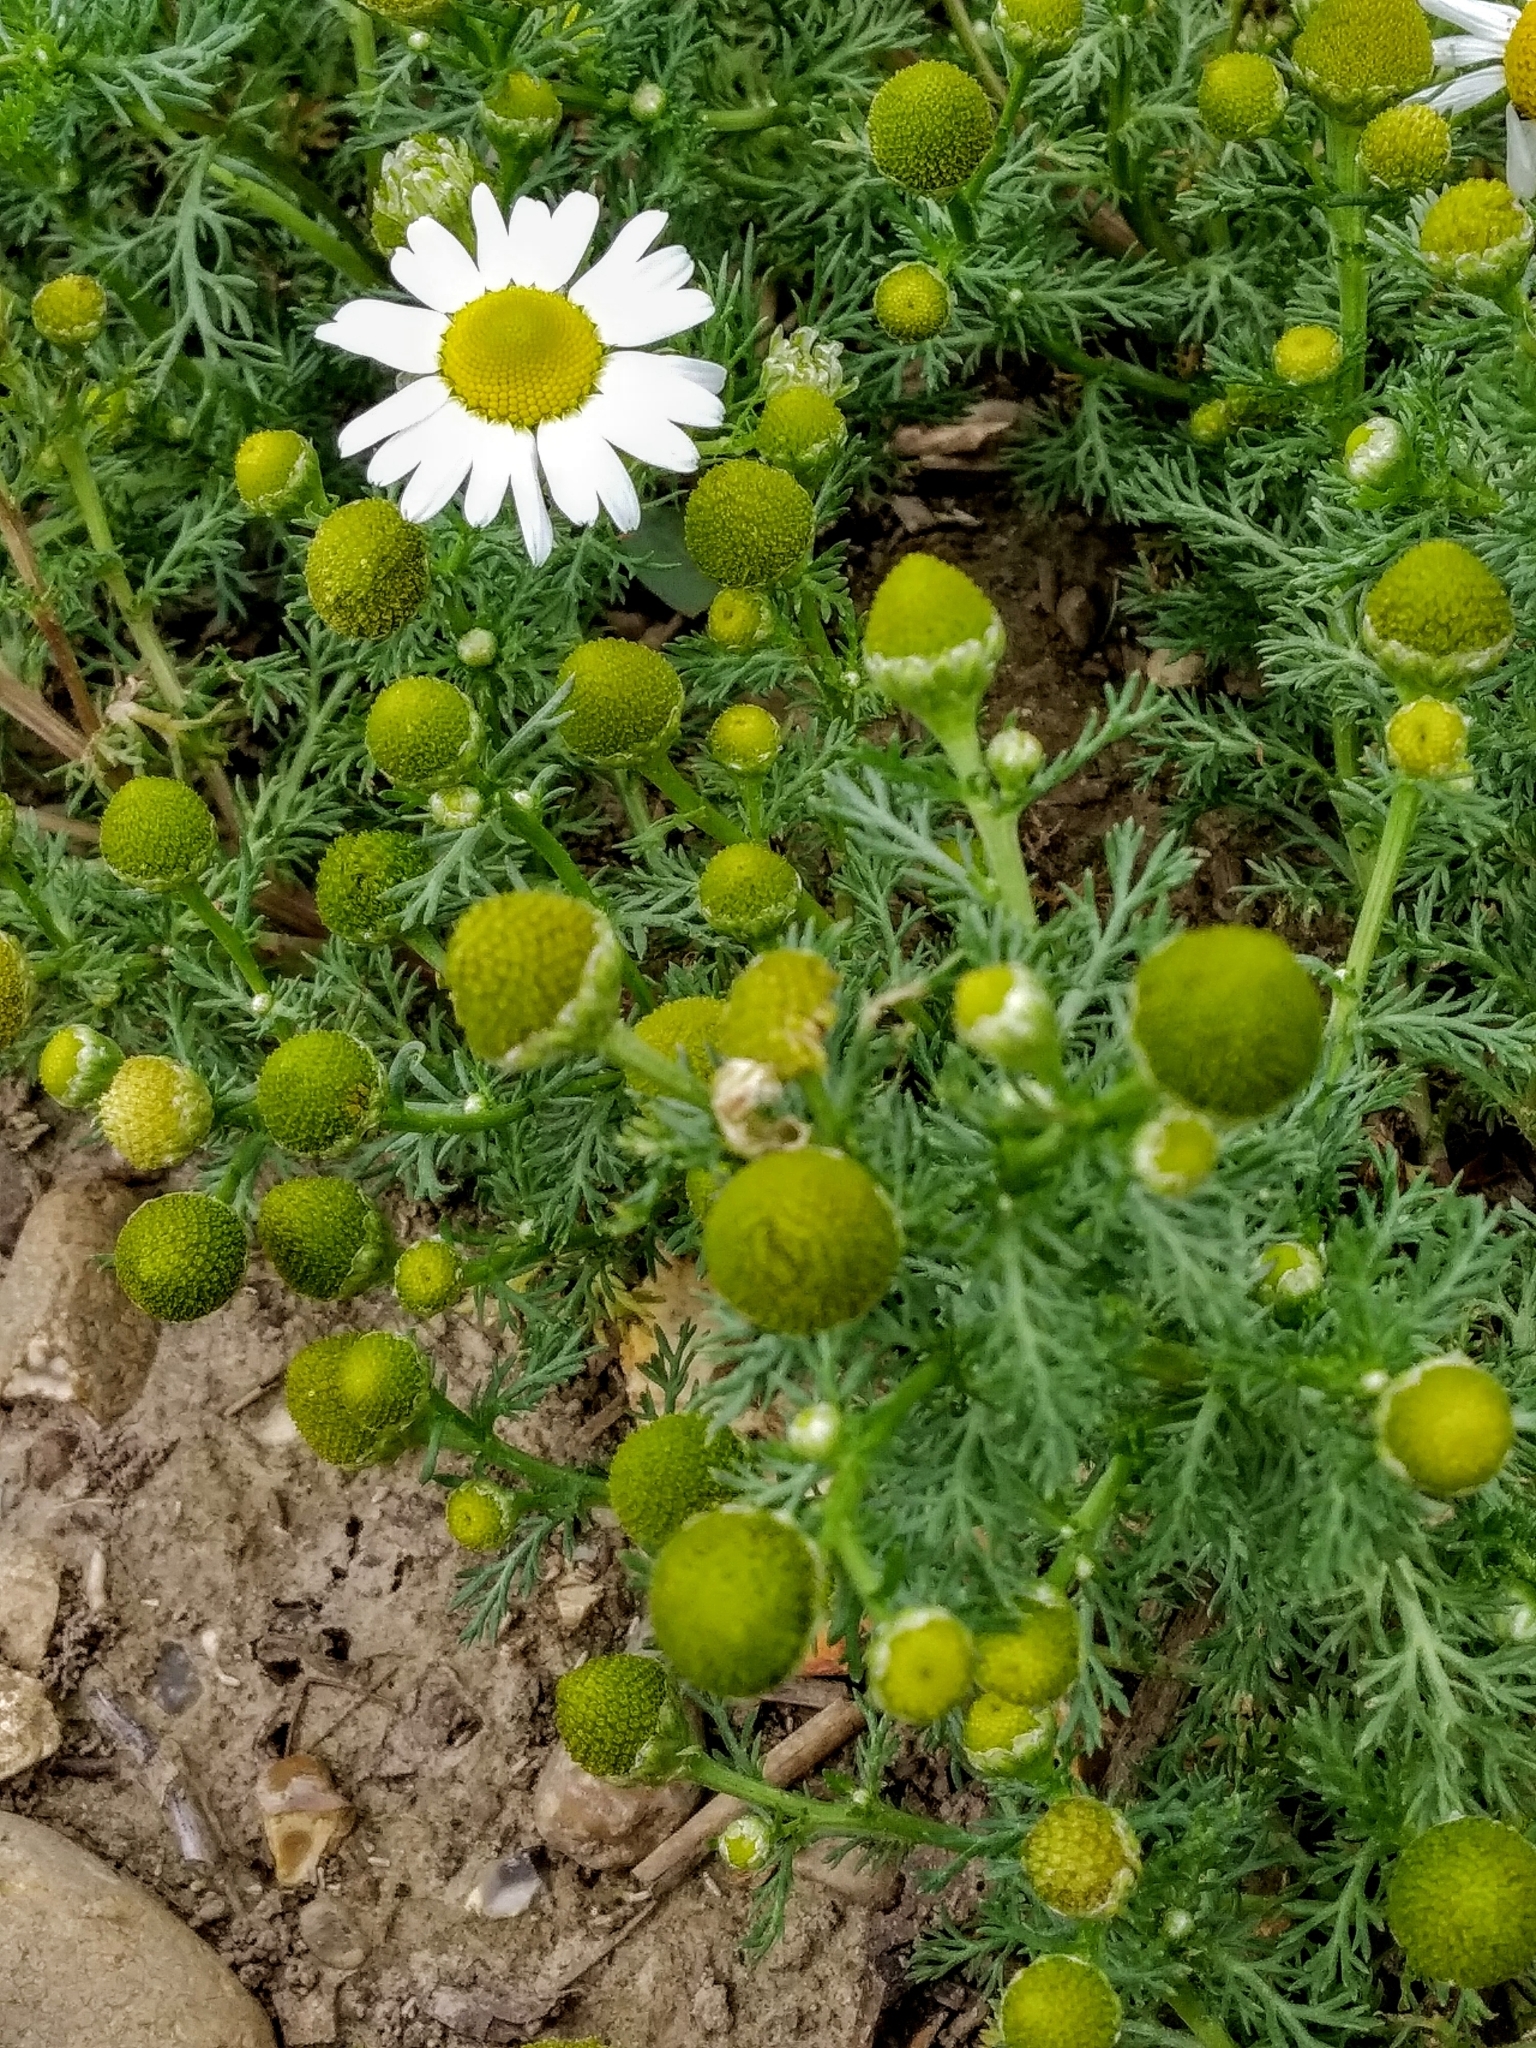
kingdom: Plantae
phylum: Tracheophyta
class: Magnoliopsida
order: Asterales
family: Asteraceae
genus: Matricaria
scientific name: Matricaria discoidea
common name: Disc mayweed
